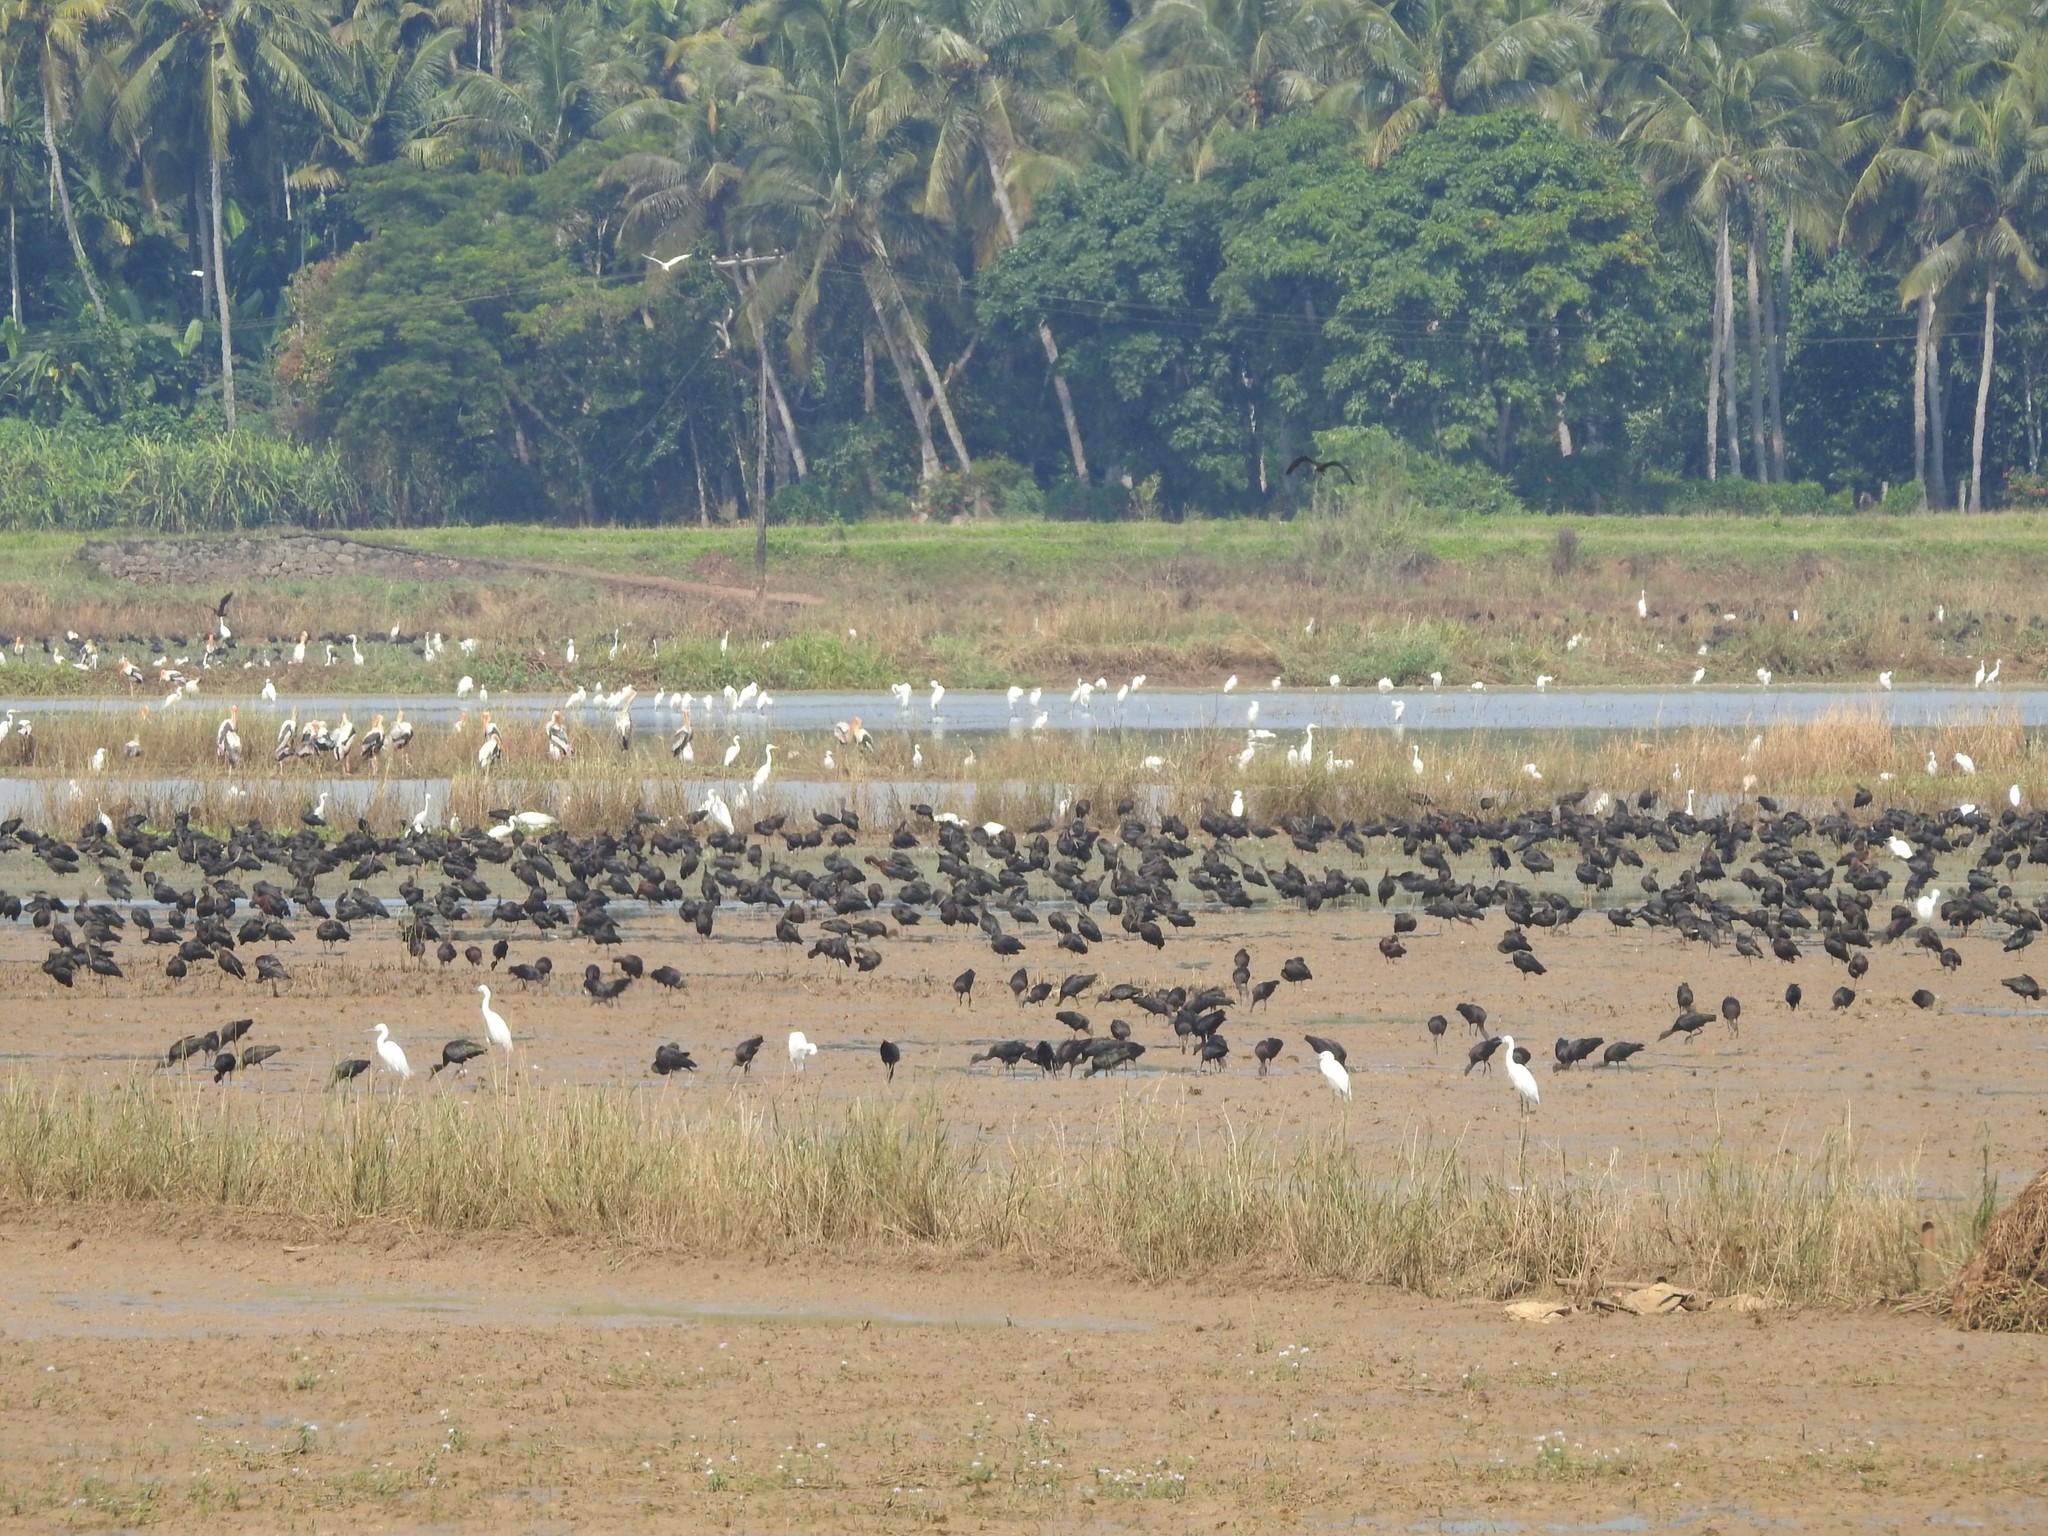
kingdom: Animalia
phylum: Chordata
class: Aves
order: Pelecaniformes
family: Threskiornithidae
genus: Plegadis
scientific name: Plegadis falcinellus
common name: Glossy ibis
